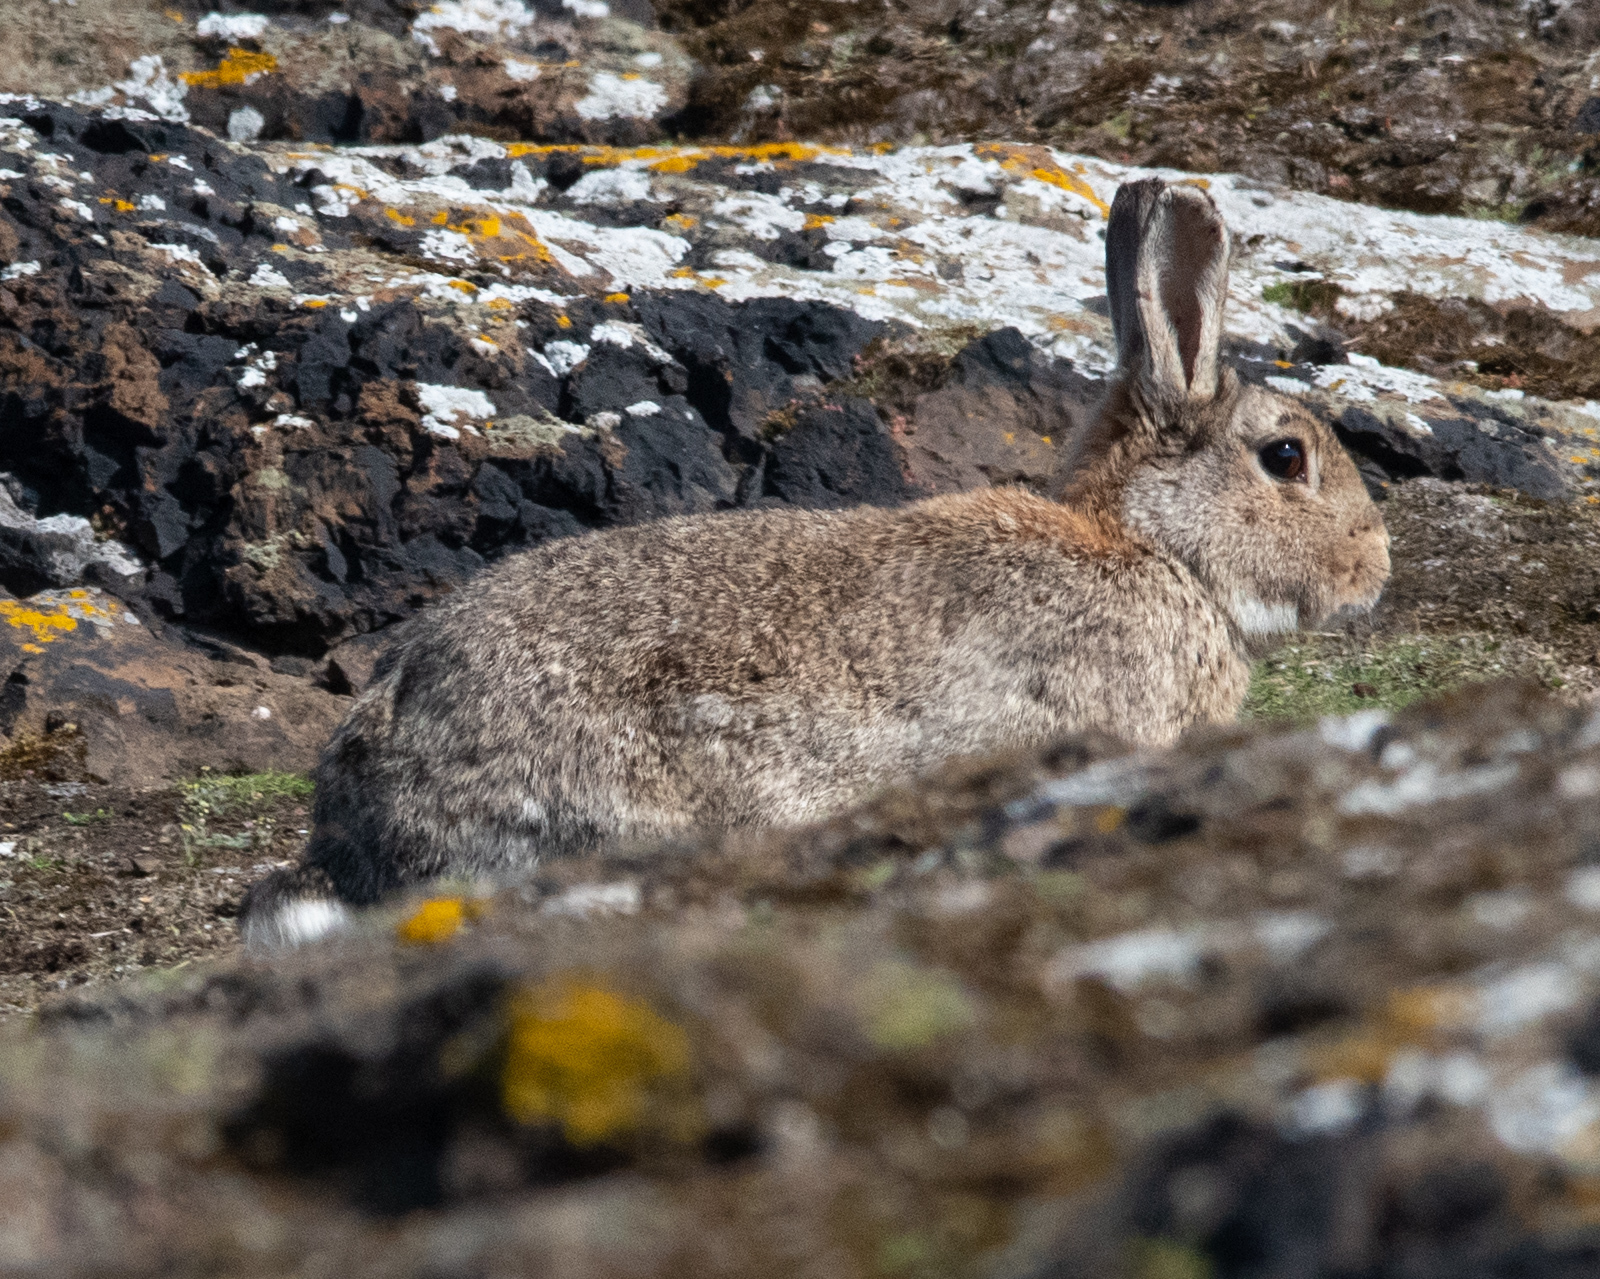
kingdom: Animalia
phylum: Chordata
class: Mammalia
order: Lagomorpha
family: Leporidae
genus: Oryctolagus
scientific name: Oryctolagus cuniculus
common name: European rabbit
